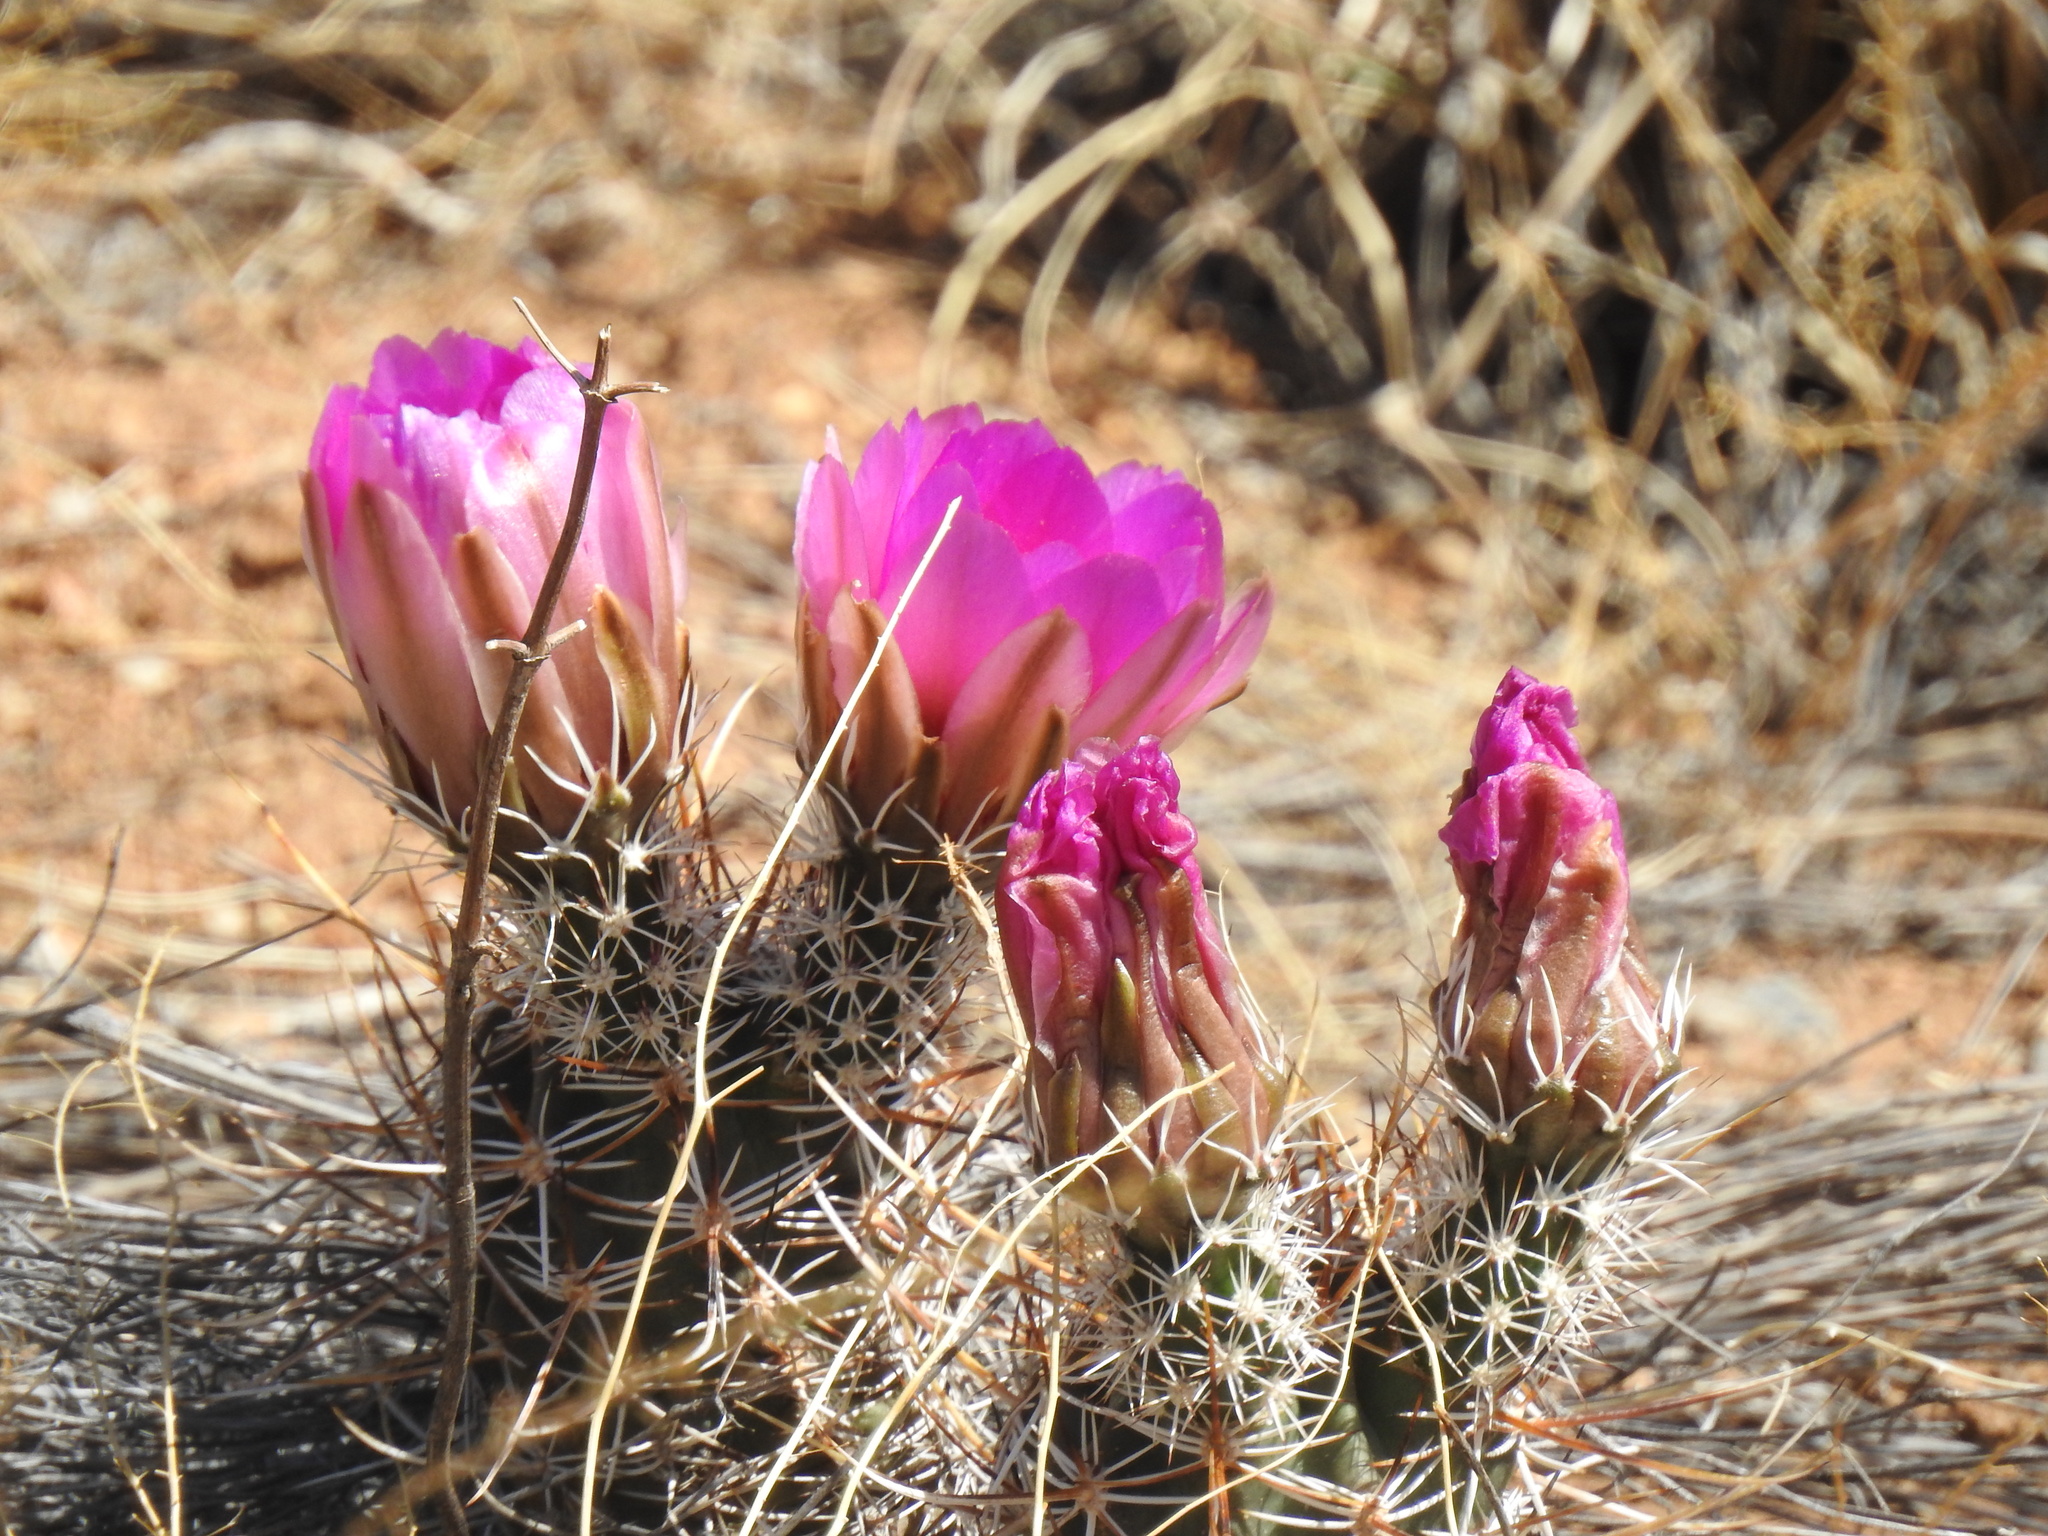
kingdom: Plantae
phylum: Tracheophyta
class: Magnoliopsida
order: Caryophyllales
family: Cactaceae
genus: Echinocereus
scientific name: Echinocereus fendleri
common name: Fendler's hedgehog cactus
